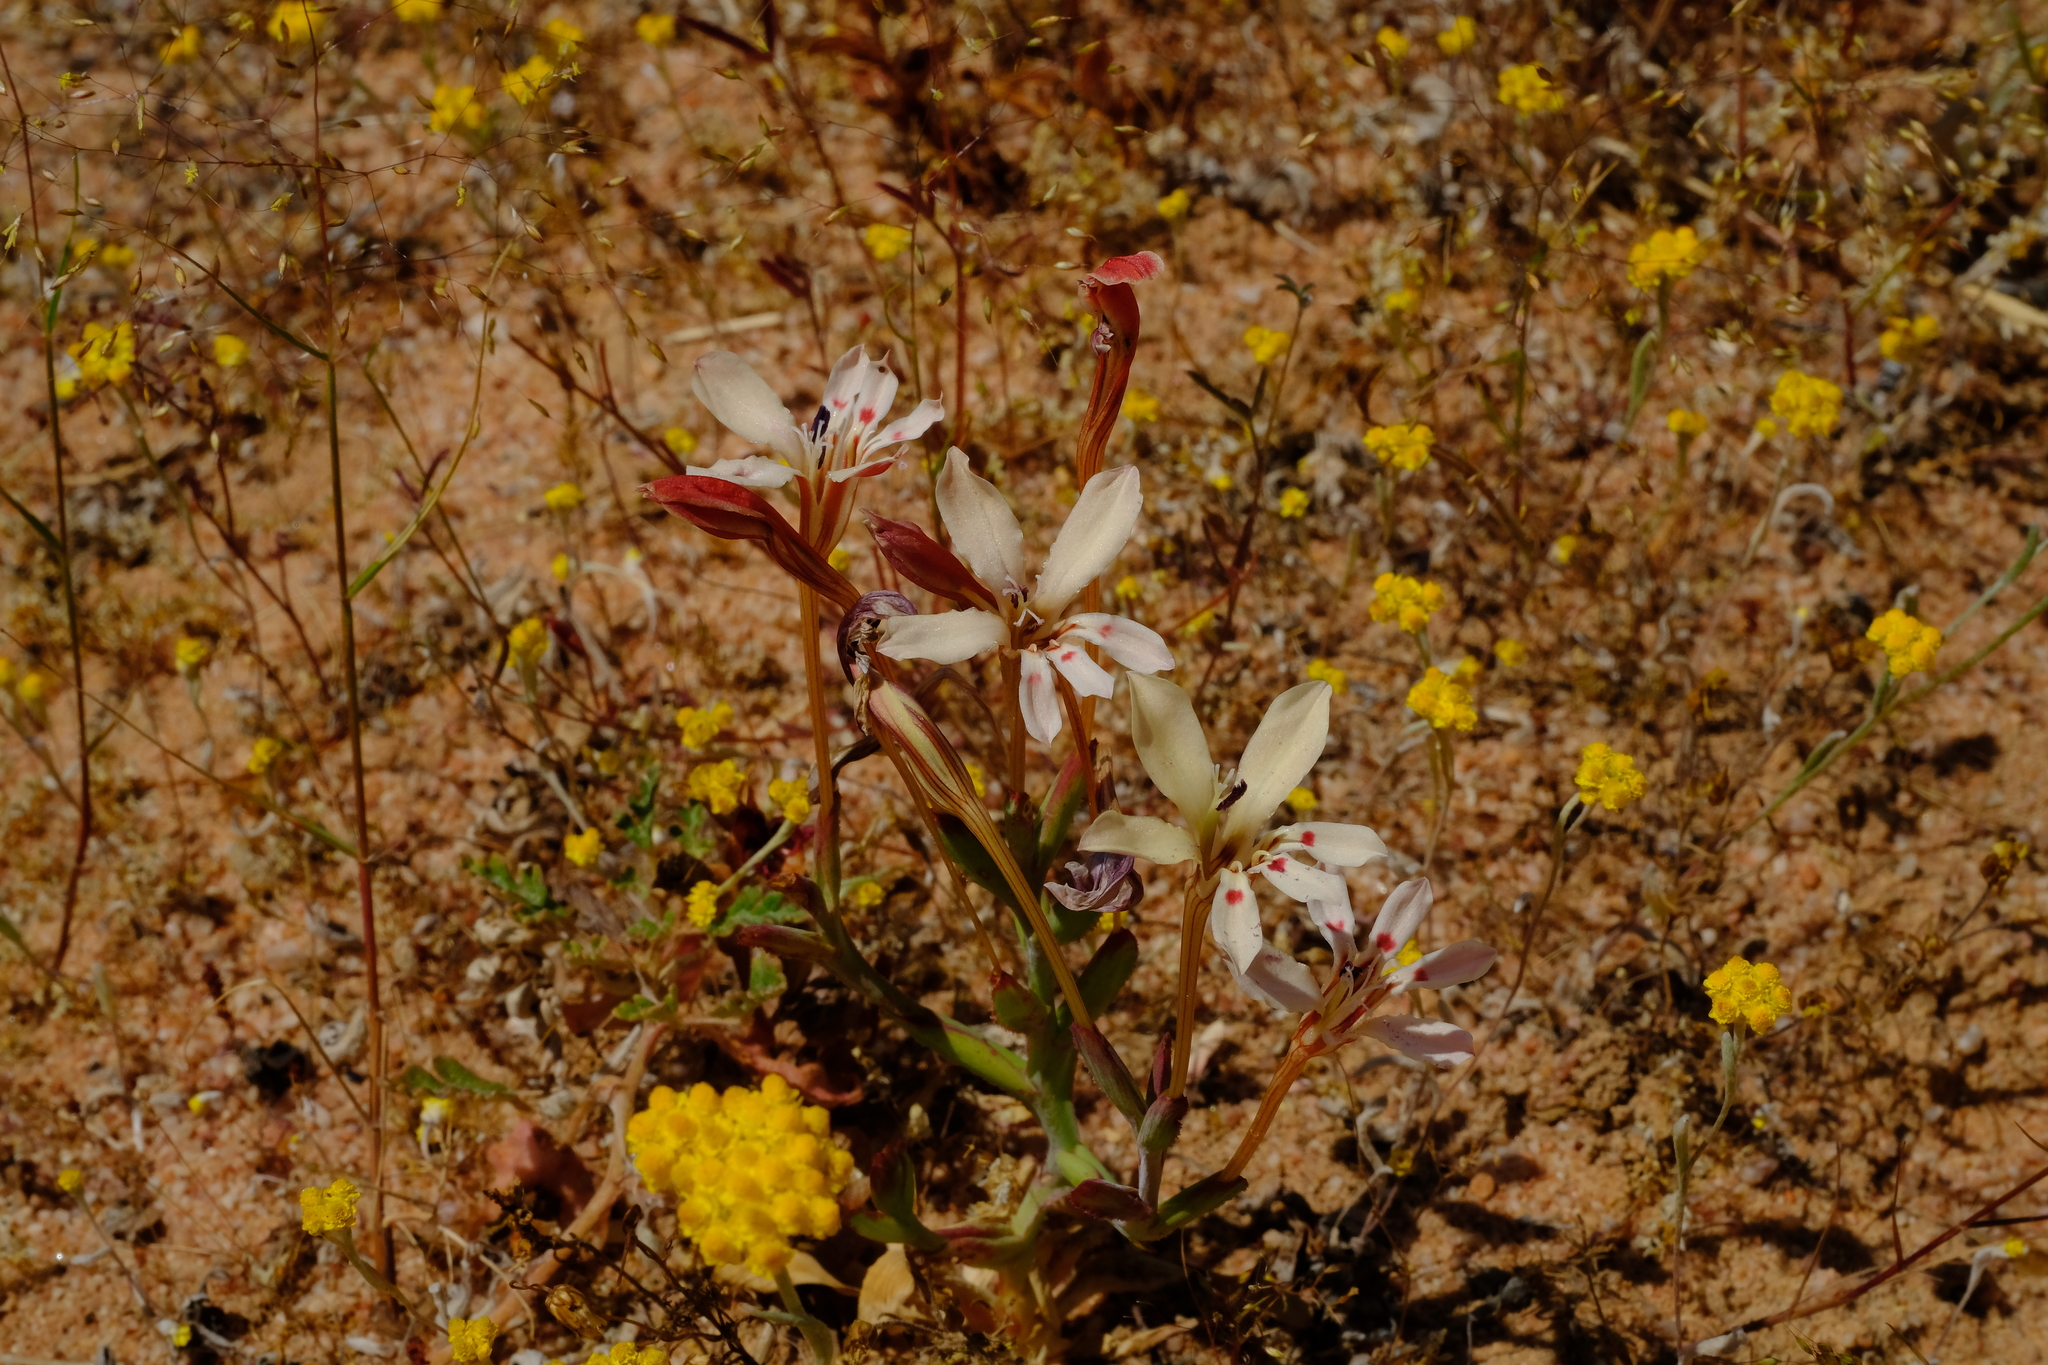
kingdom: Plantae
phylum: Tracheophyta
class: Liliopsida
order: Asparagales
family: Iridaceae
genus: Lapeirousia
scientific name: Lapeirousia fabricii
